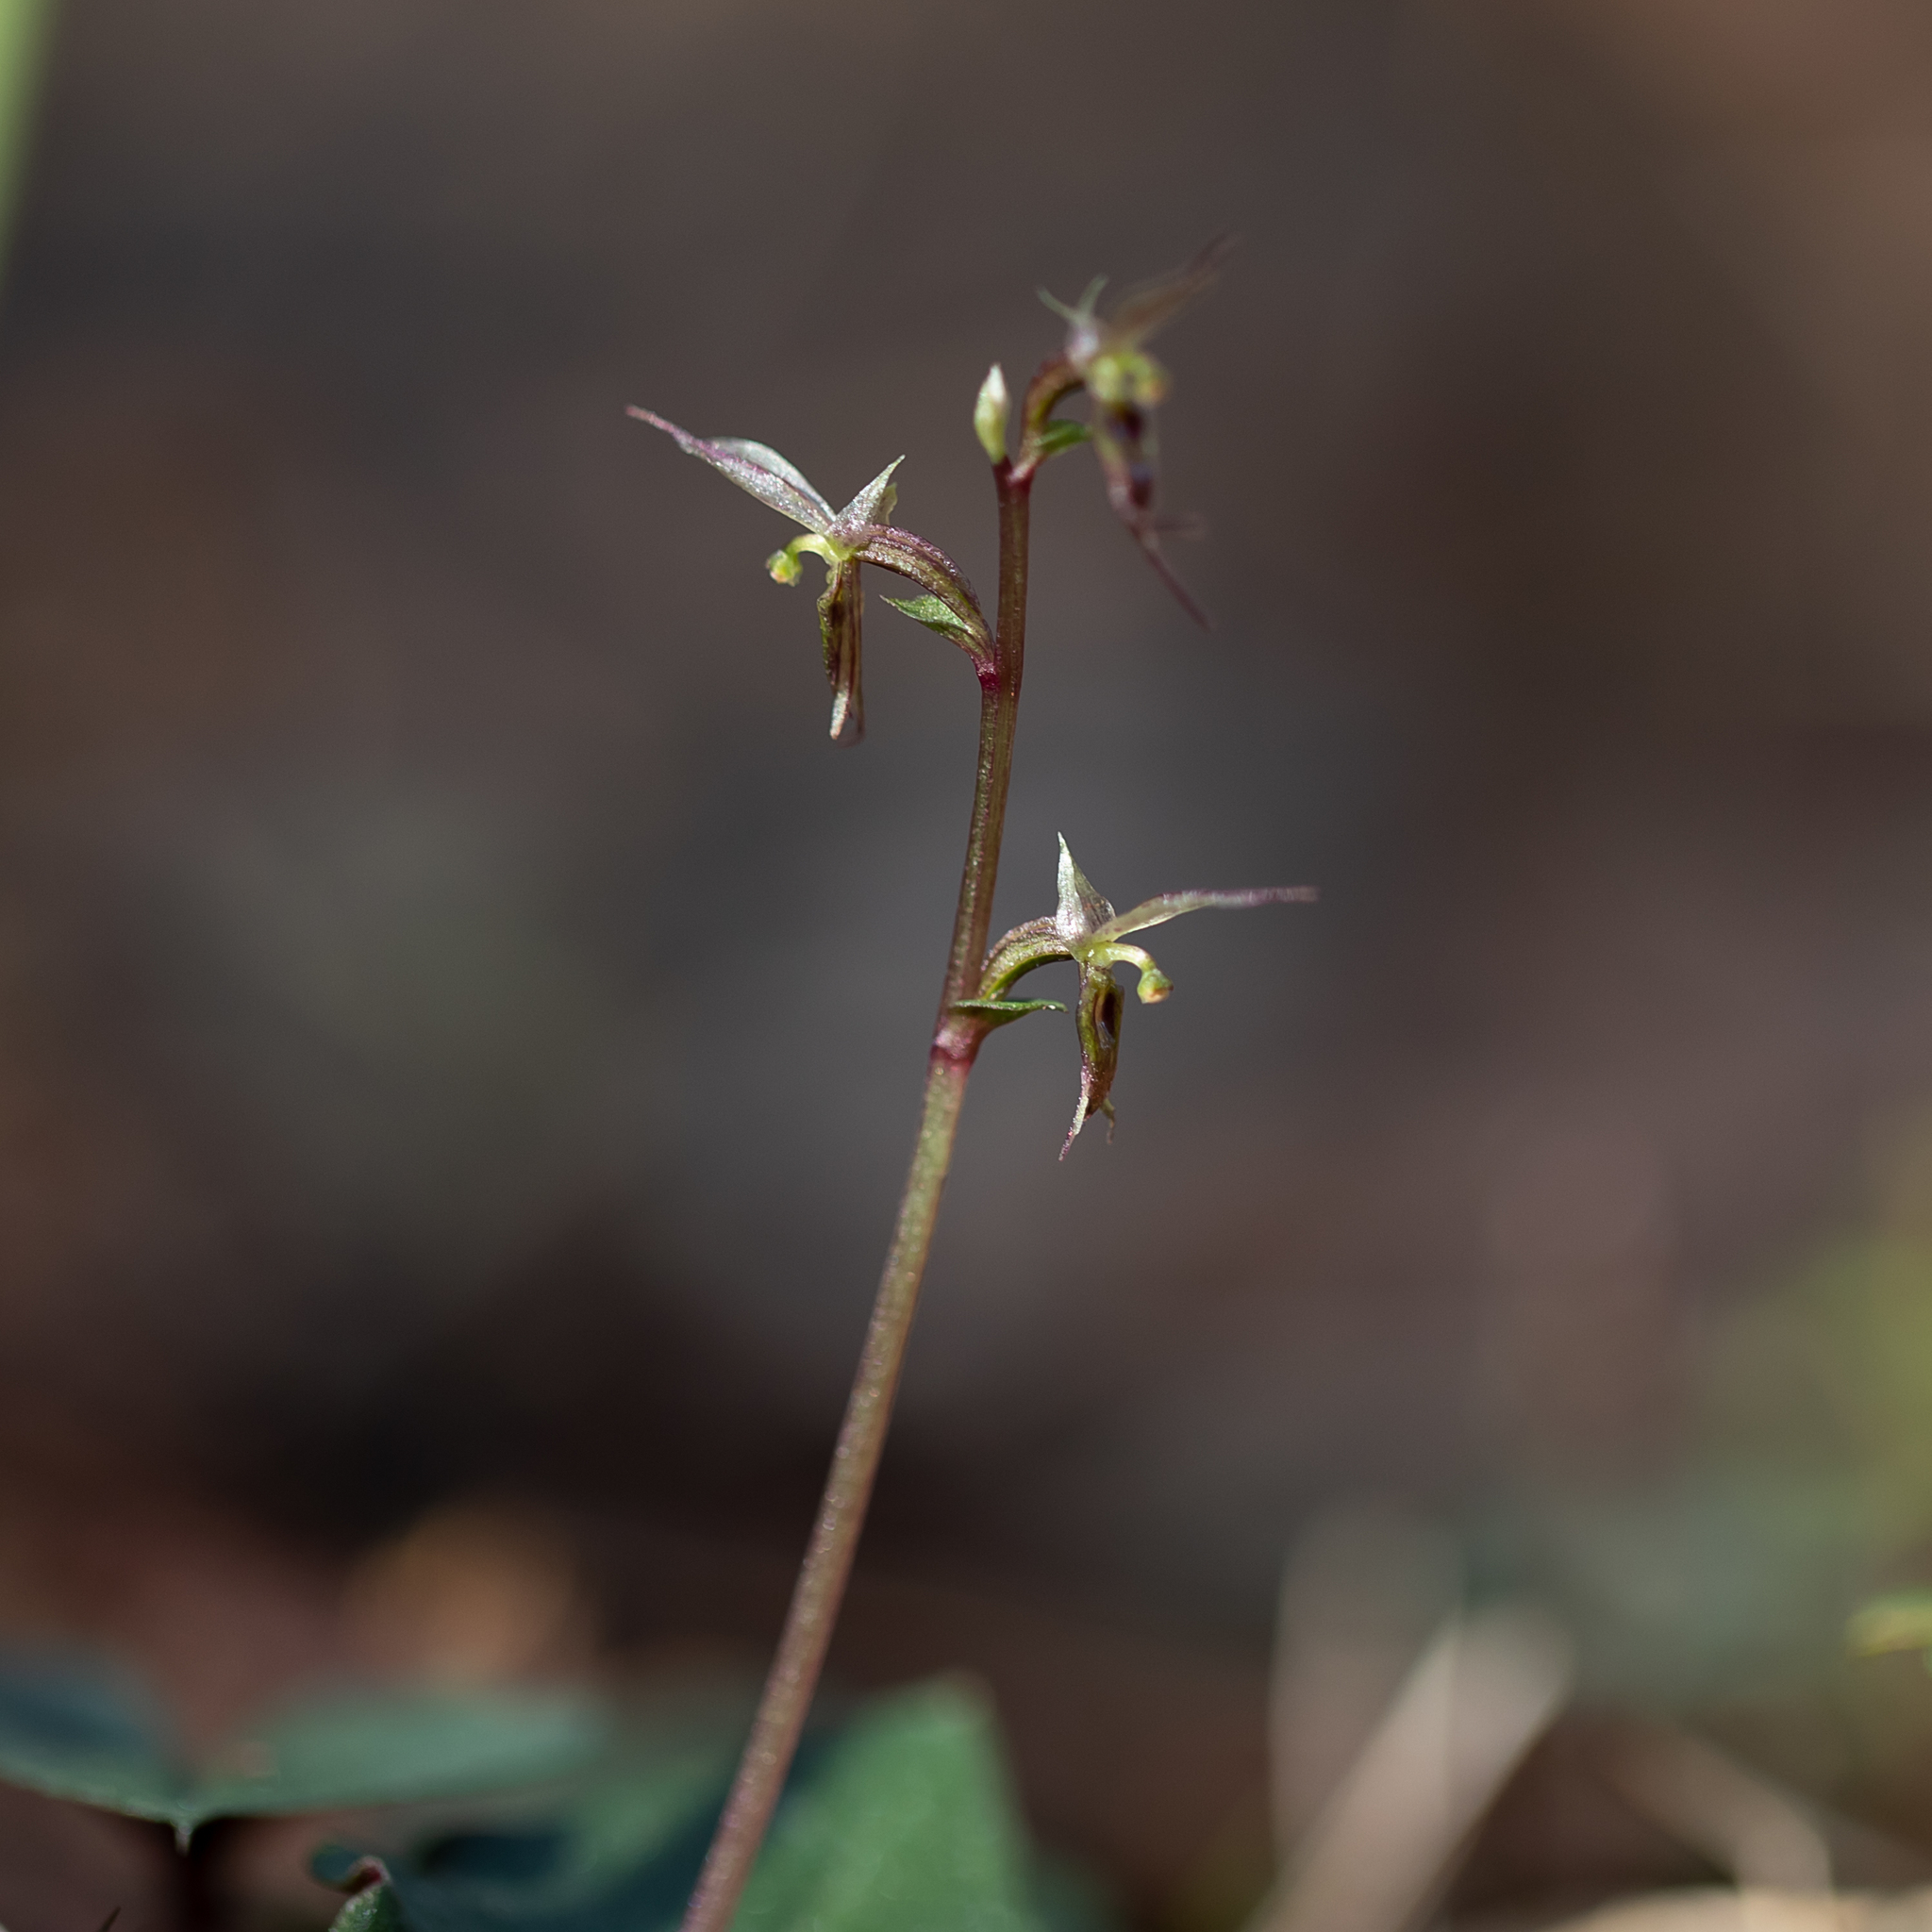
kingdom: Plantae
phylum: Tracheophyta
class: Liliopsida
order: Asparagales
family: Orchidaceae
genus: Acianthus
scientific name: Acianthus pusillus
